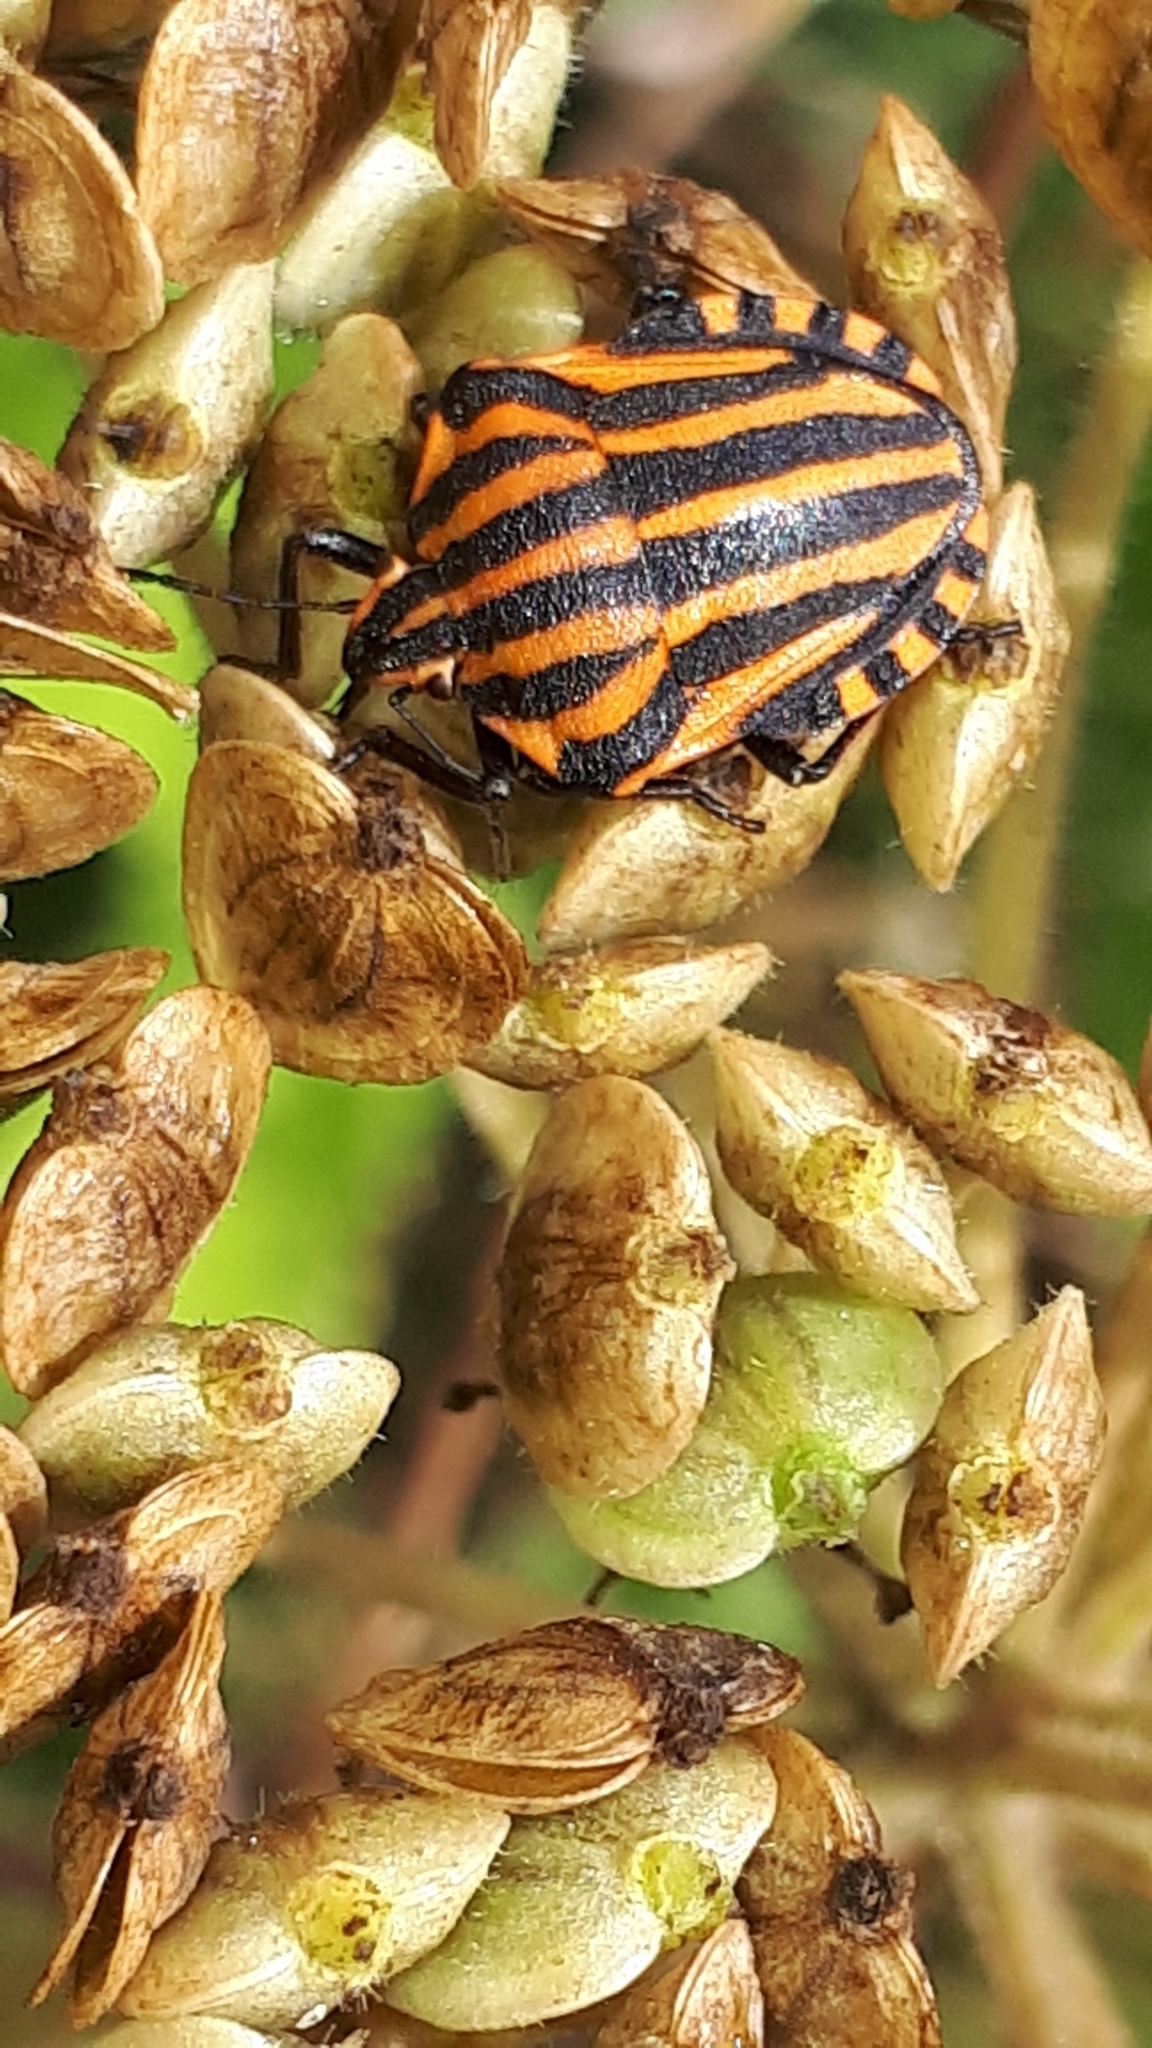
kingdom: Animalia
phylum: Arthropoda
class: Insecta
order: Hemiptera
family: Pentatomidae
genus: Graphosoma
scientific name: Graphosoma italicum
